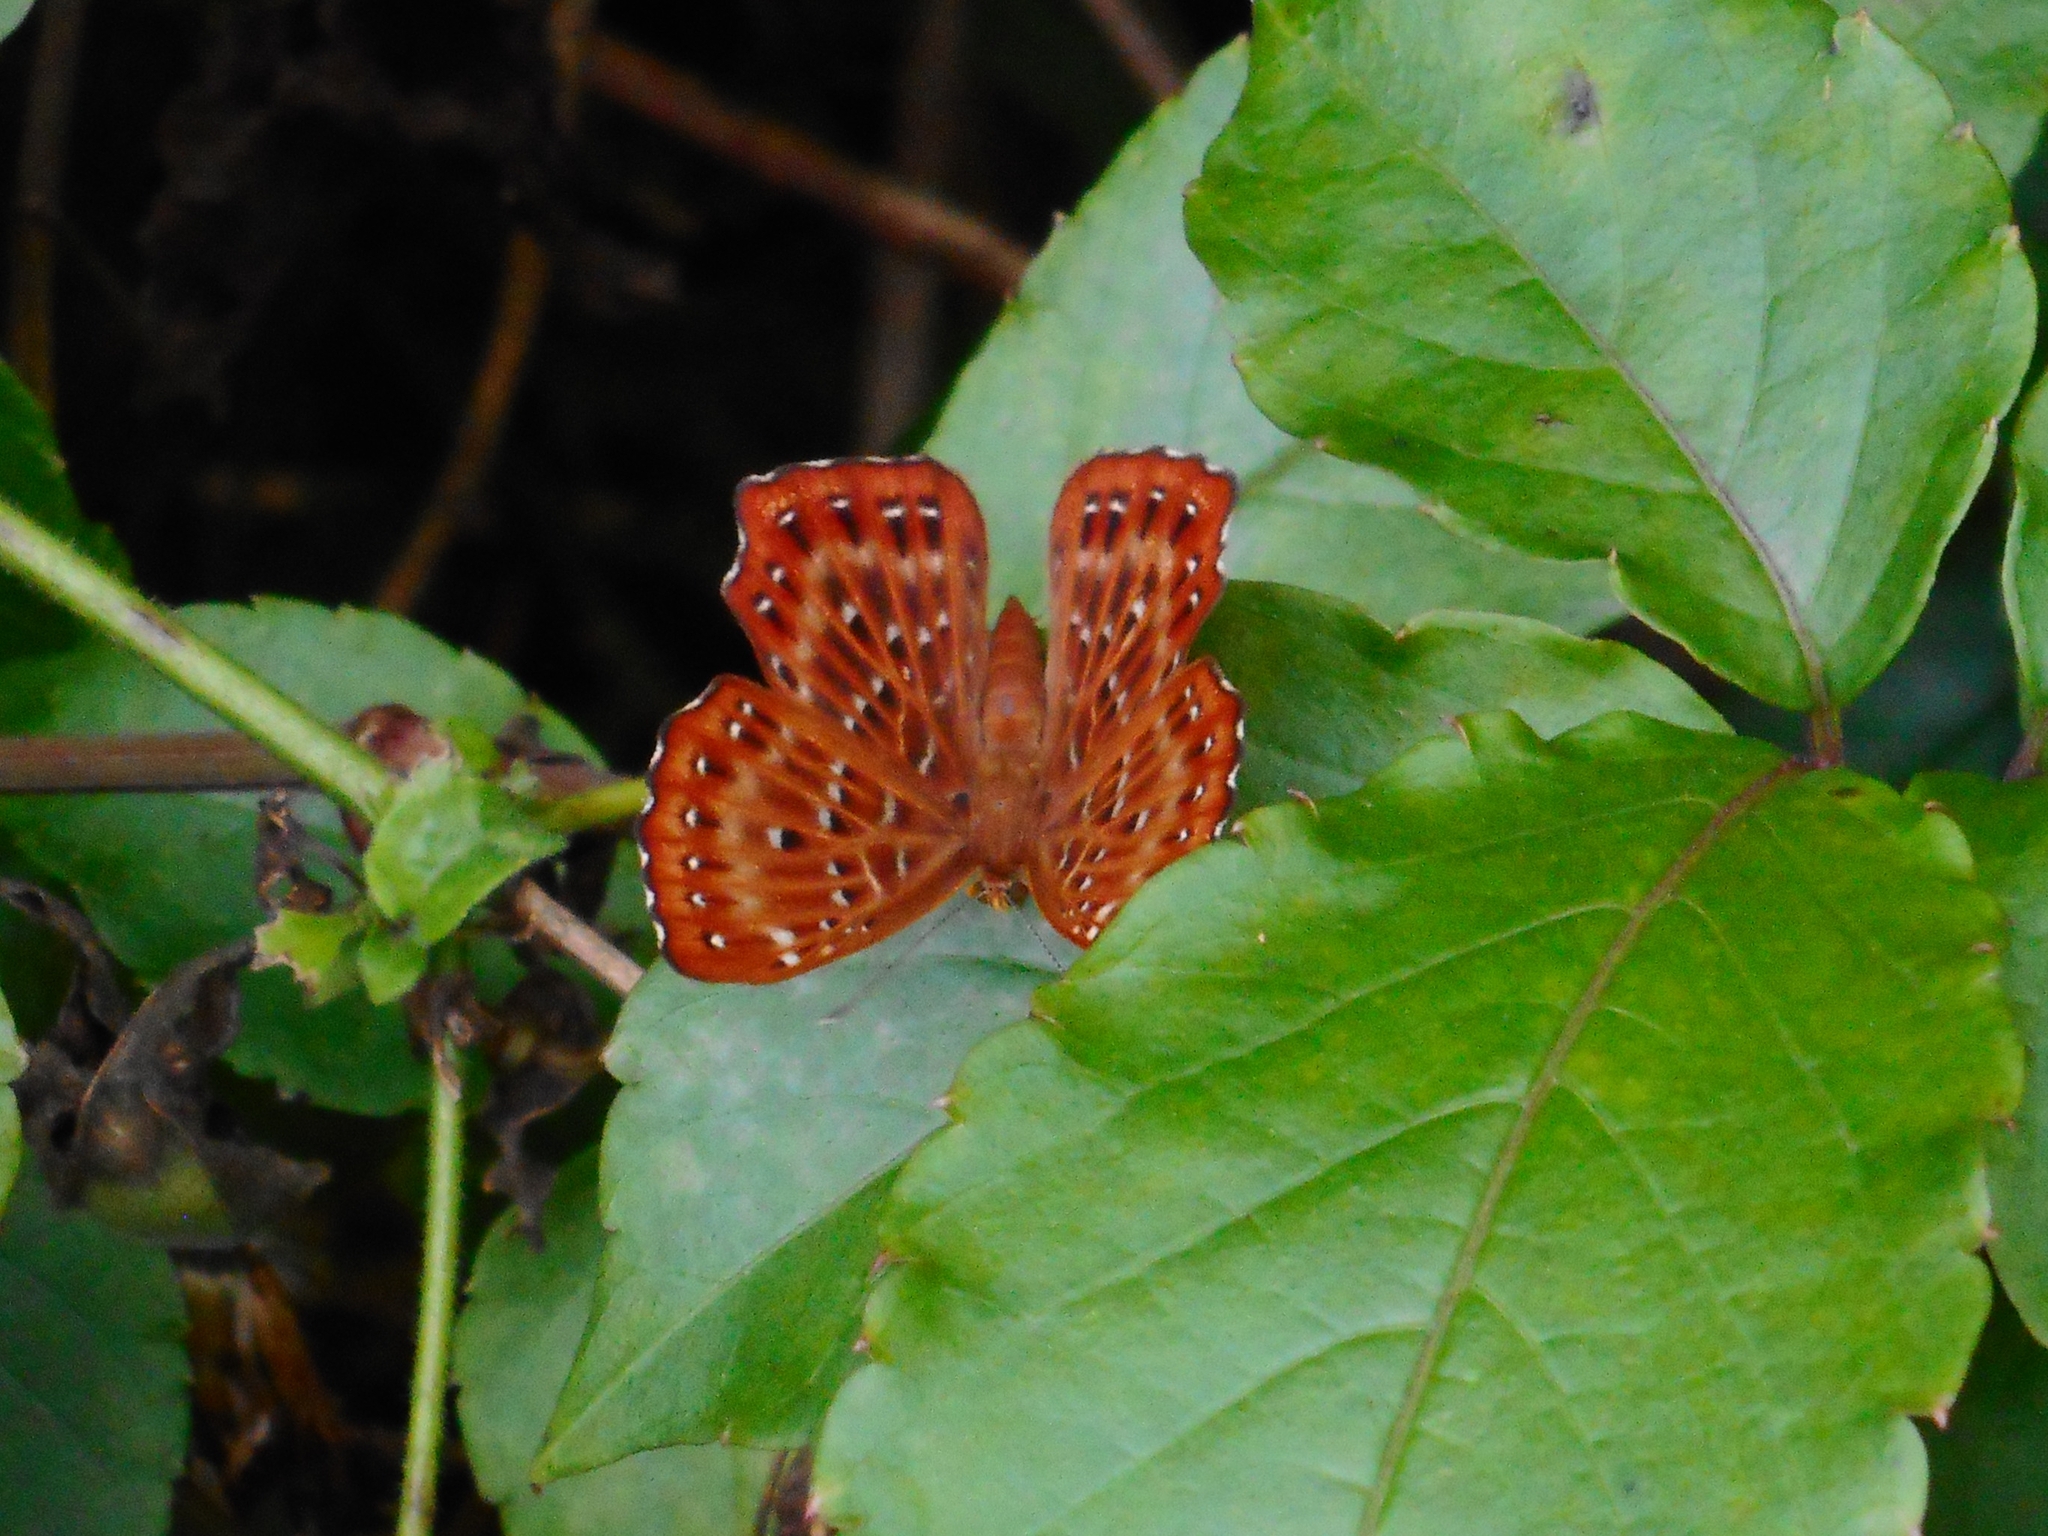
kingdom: Animalia
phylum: Arthropoda
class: Insecta
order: Lepidoptera
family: Riodinidae
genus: Zemeros
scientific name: Zemeros flegyas
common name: Punchinello
